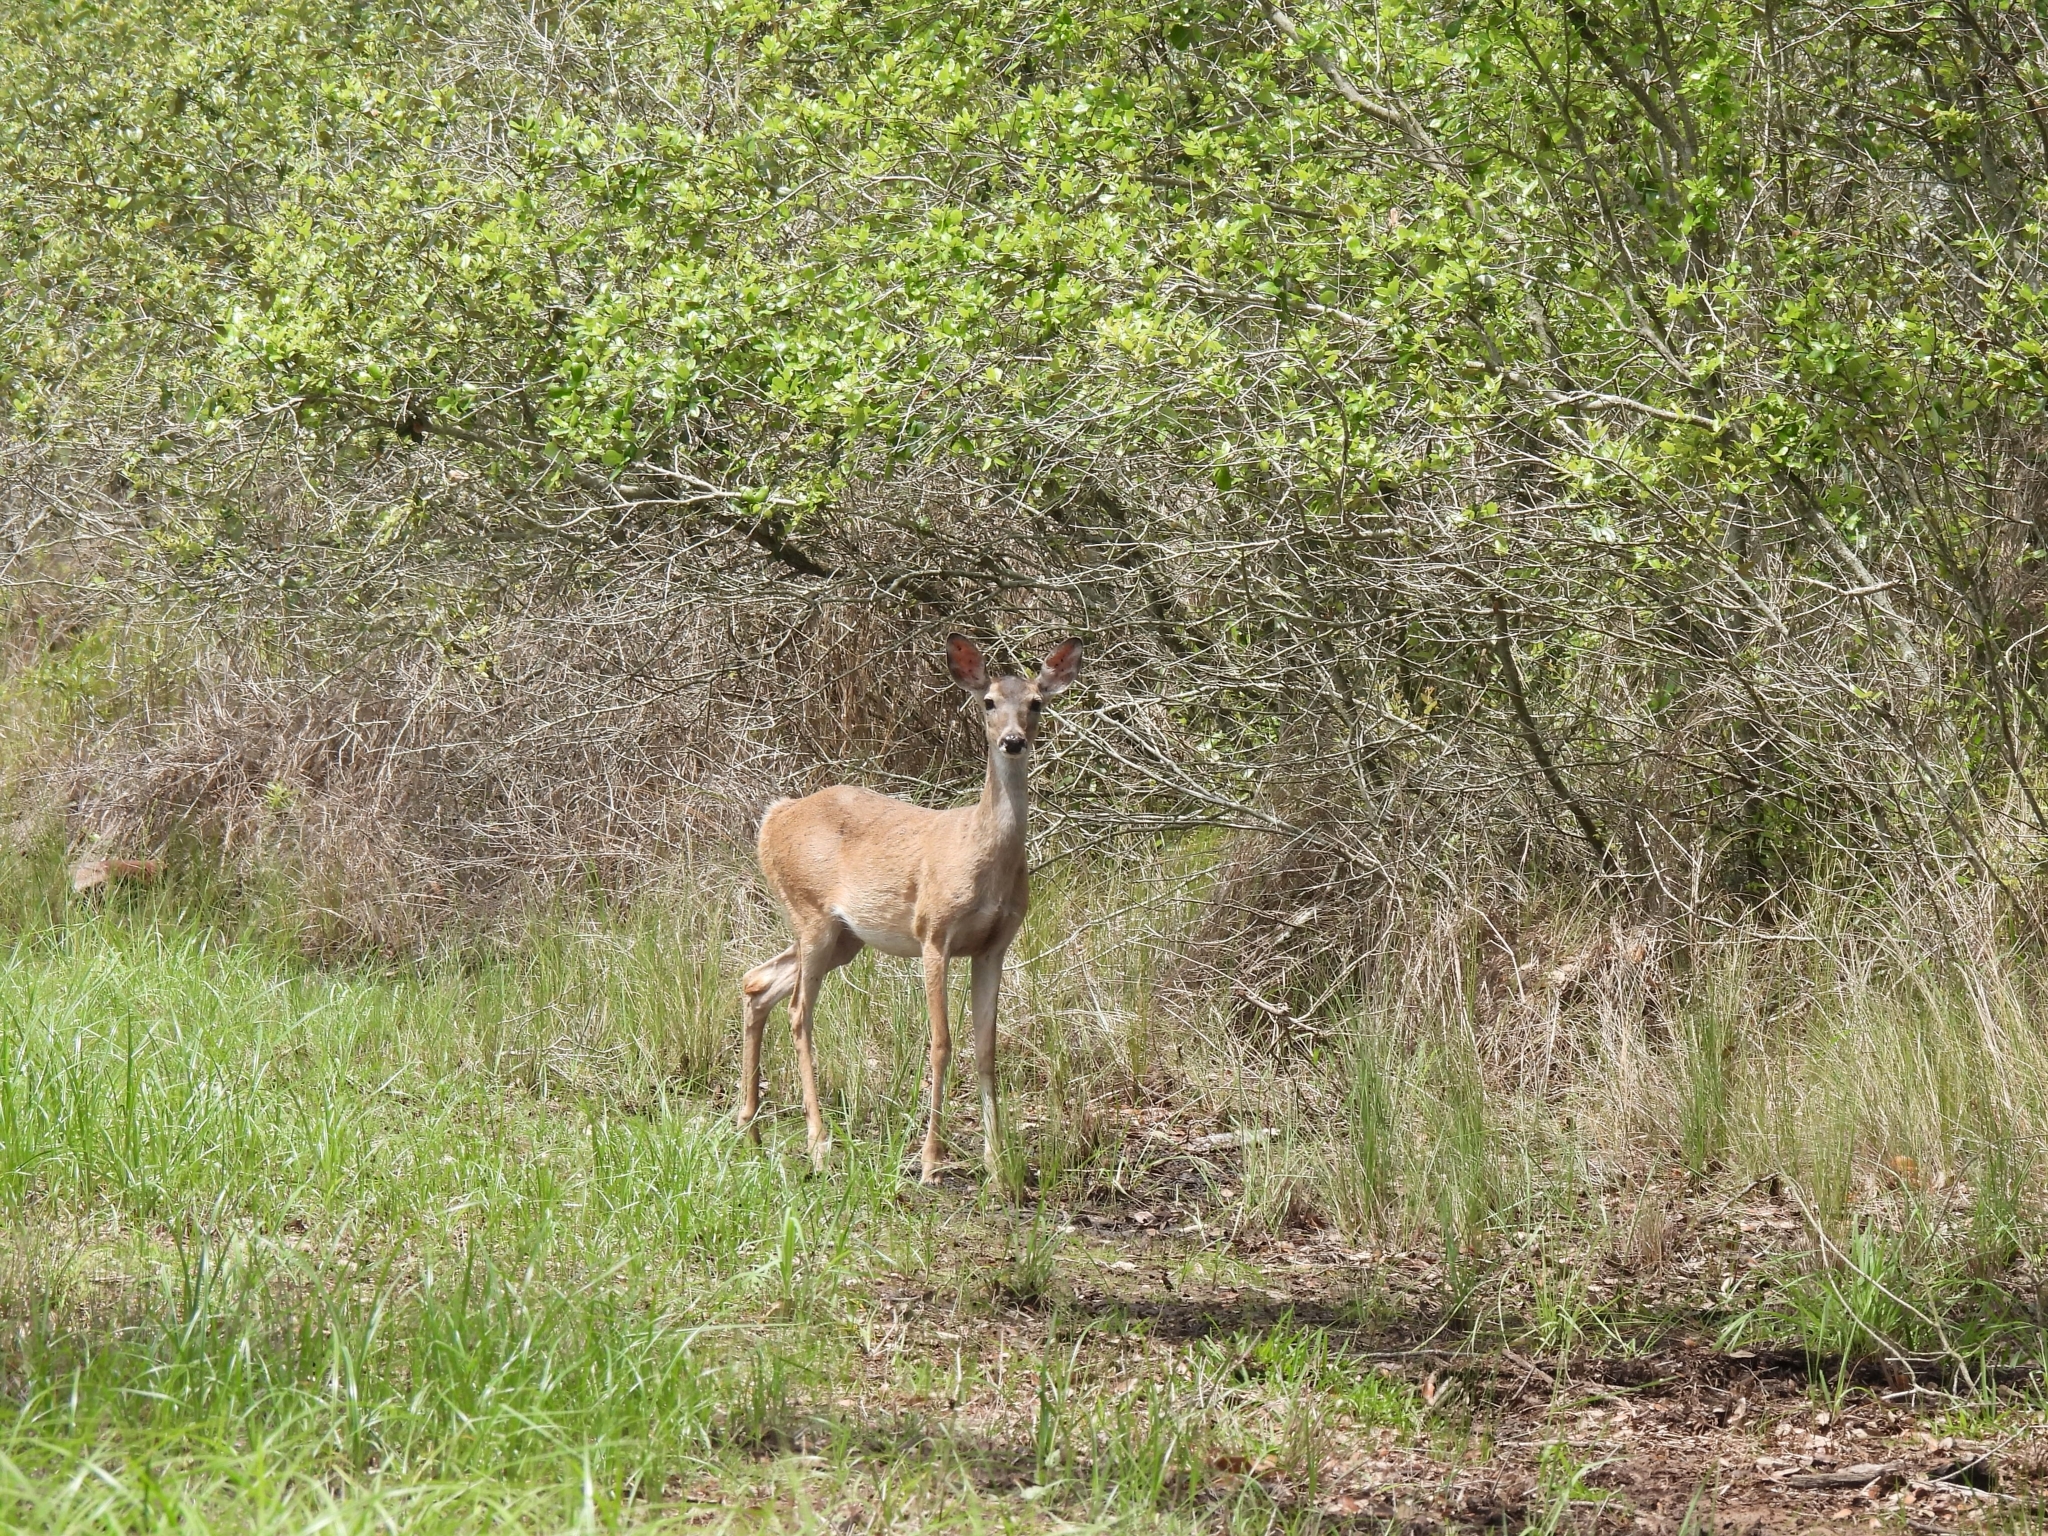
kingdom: Animalia
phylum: Chordata
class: Mammalia
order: Artiodactyla
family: Cervidae
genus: Odocoileus
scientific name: Odocoileus virginianus
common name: White-tailed deer
